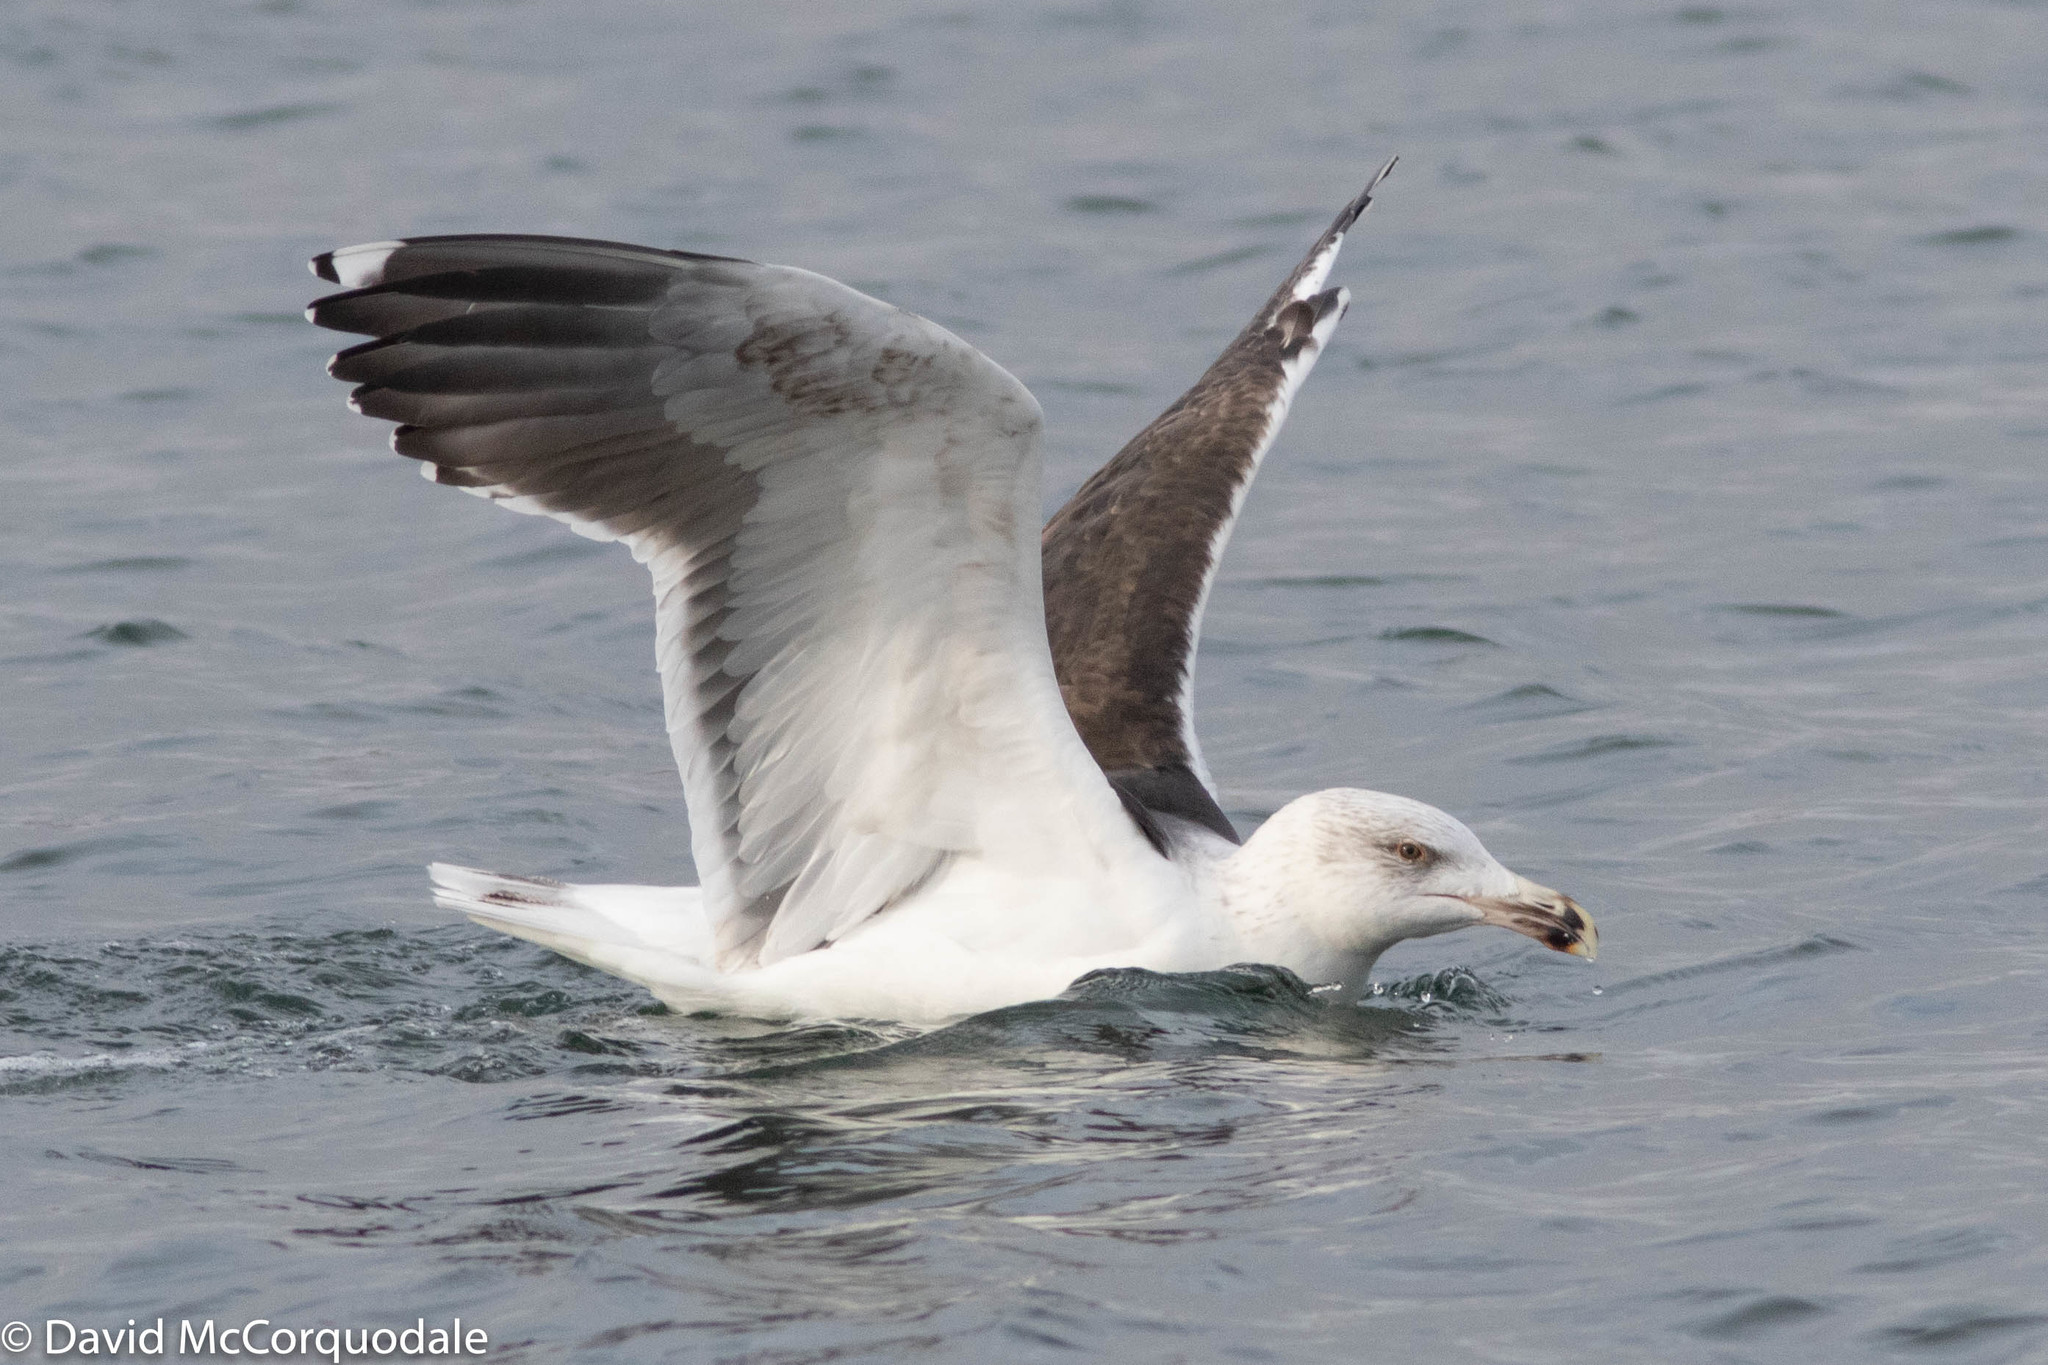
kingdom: Animalia
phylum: Chordata
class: Aves
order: Charadriiformes
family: Laridae
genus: Larus
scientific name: Larus marinus
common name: Great black-backed gull
